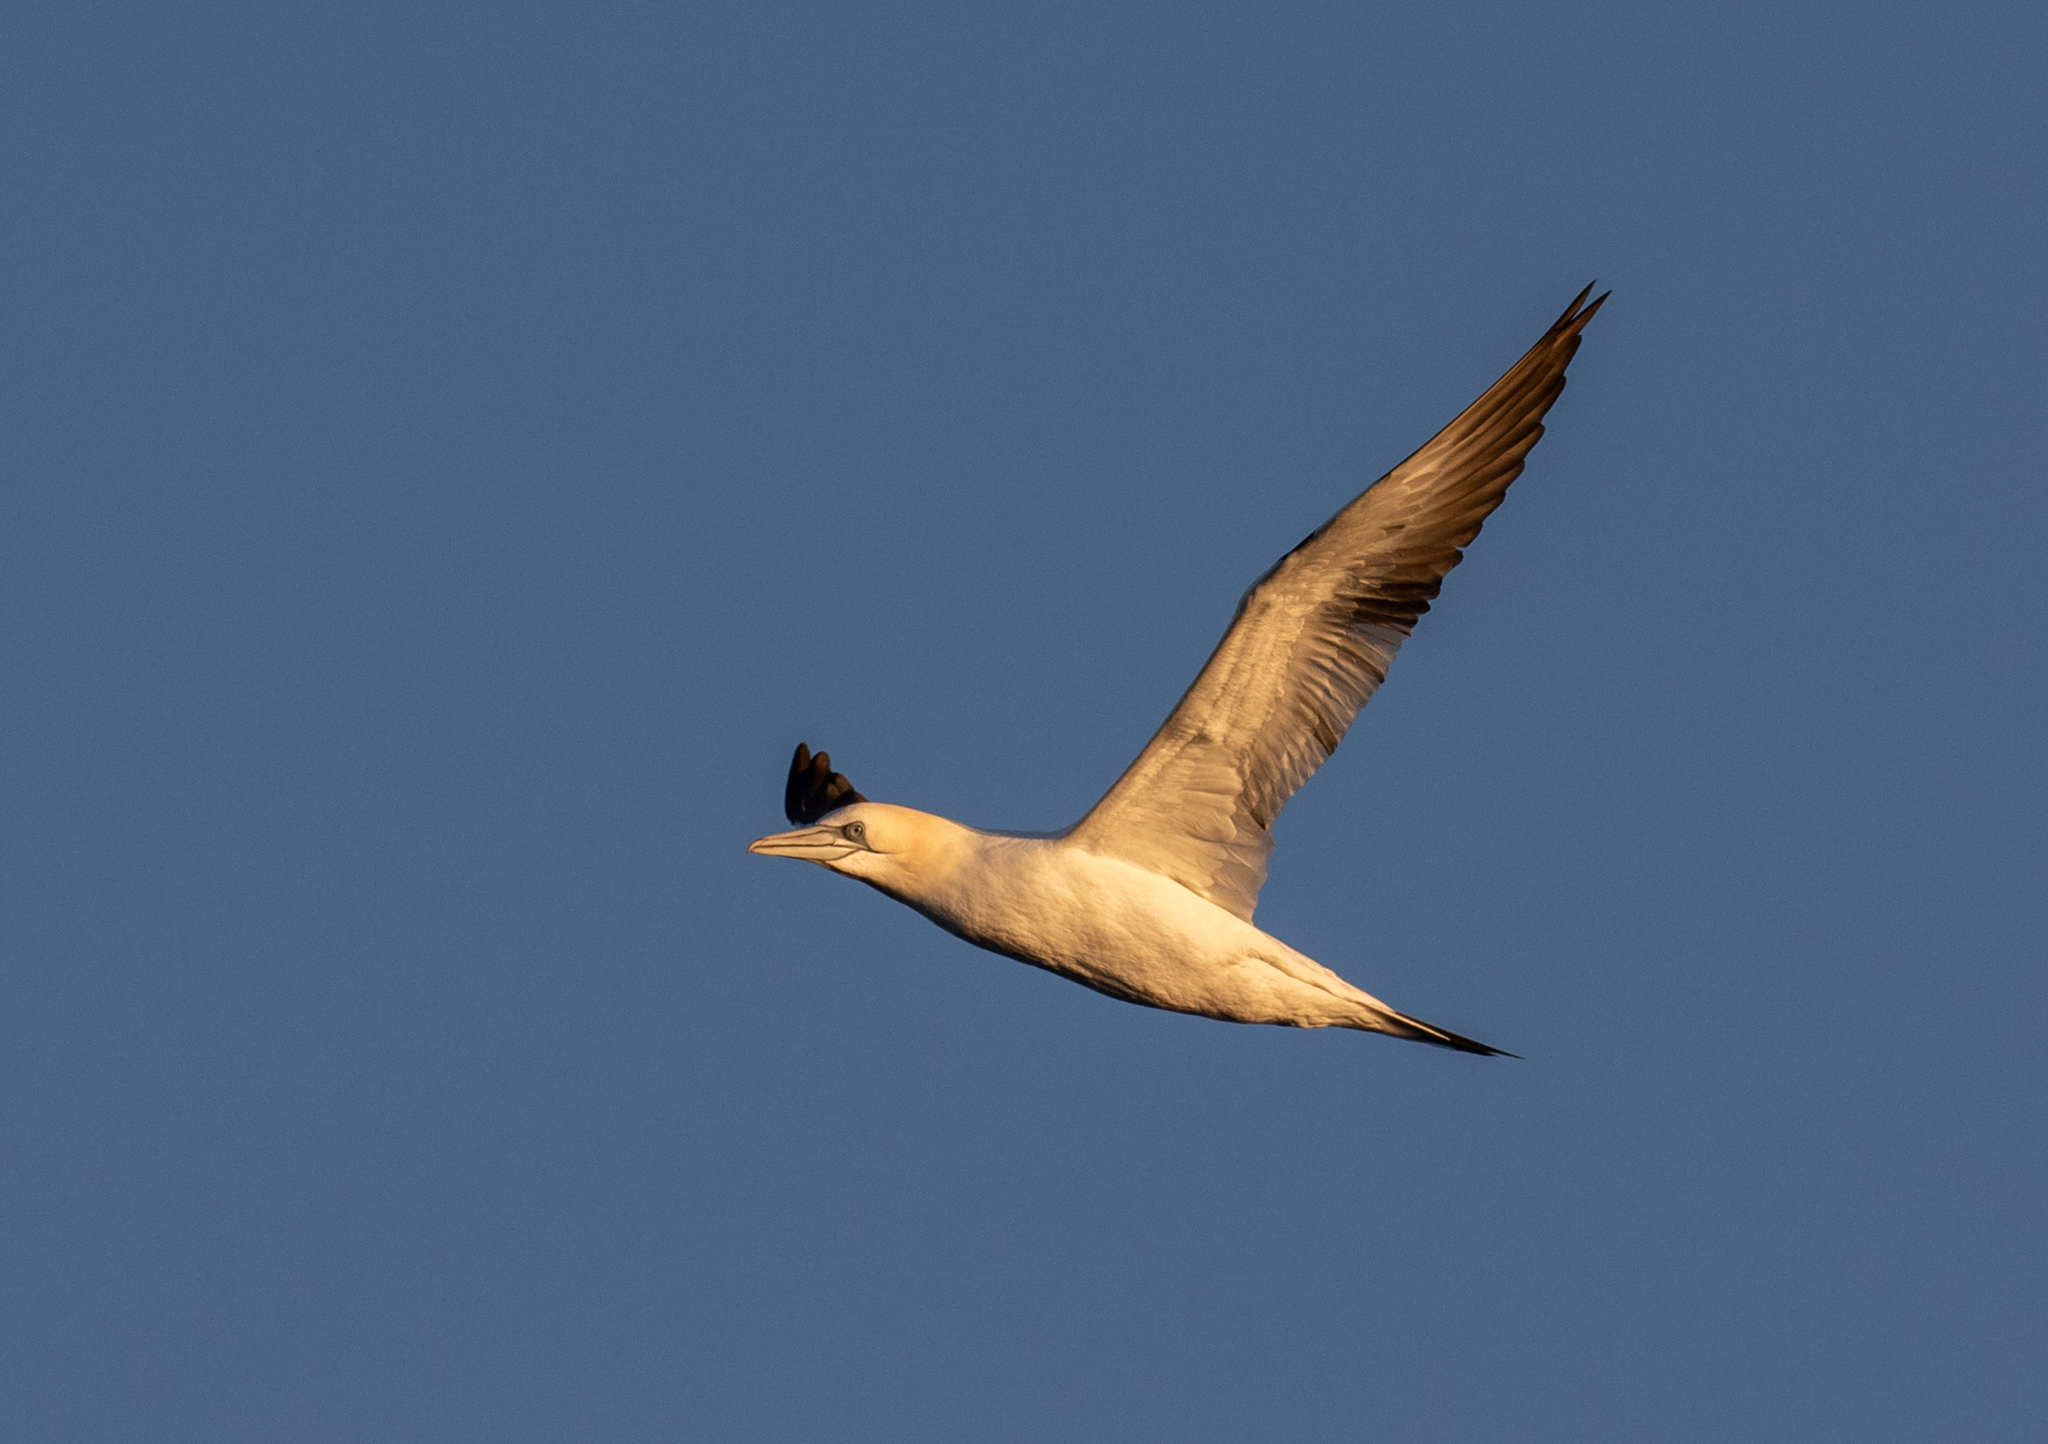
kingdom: Animalia
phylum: Chordata
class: Aves
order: Suliformes
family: Sulidae
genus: Morus
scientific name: Morus bassanus
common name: Northern gannet
